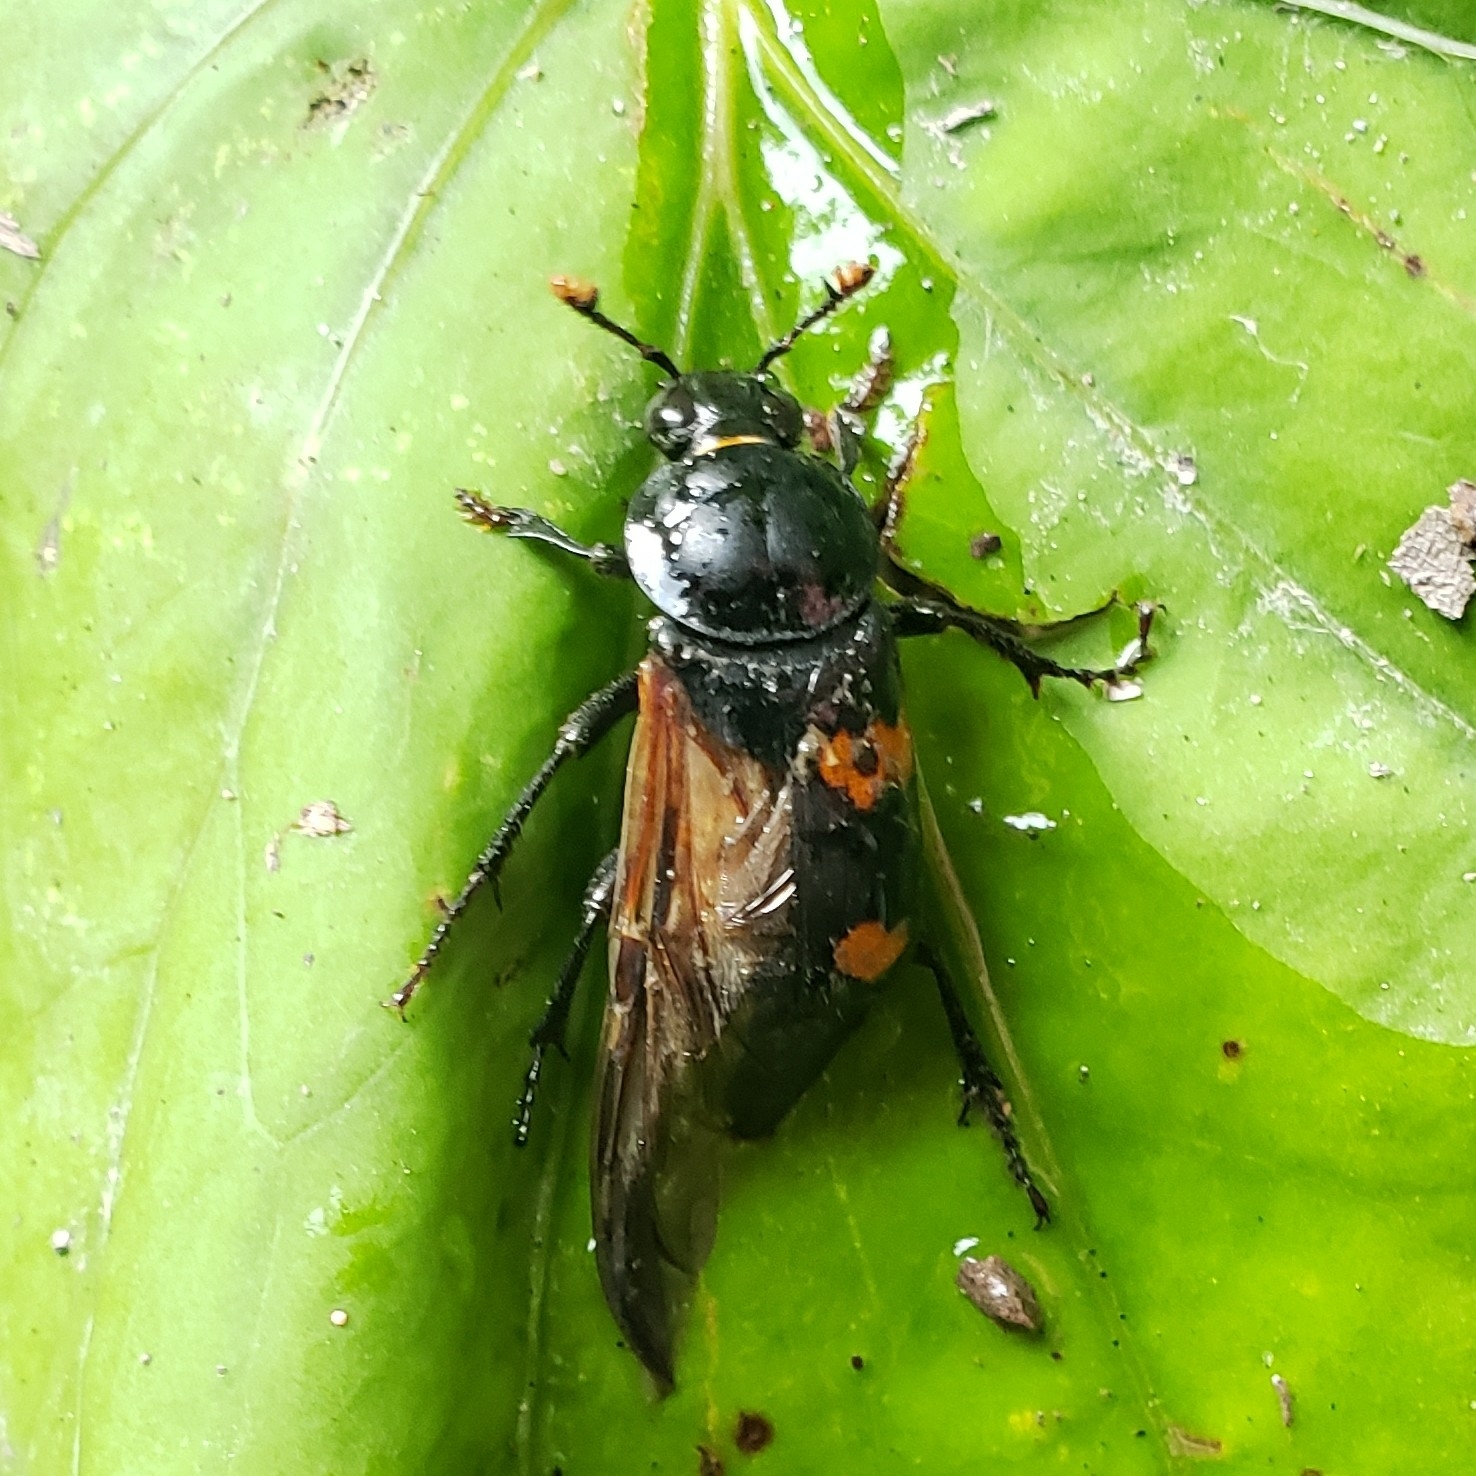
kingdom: Animalia
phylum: Arthropoda
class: Insecta
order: Coleoptera
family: Staphylinidae
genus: Nicrophorus
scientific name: Nicrophorus orbicollis
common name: Roundneck sexton beetle
